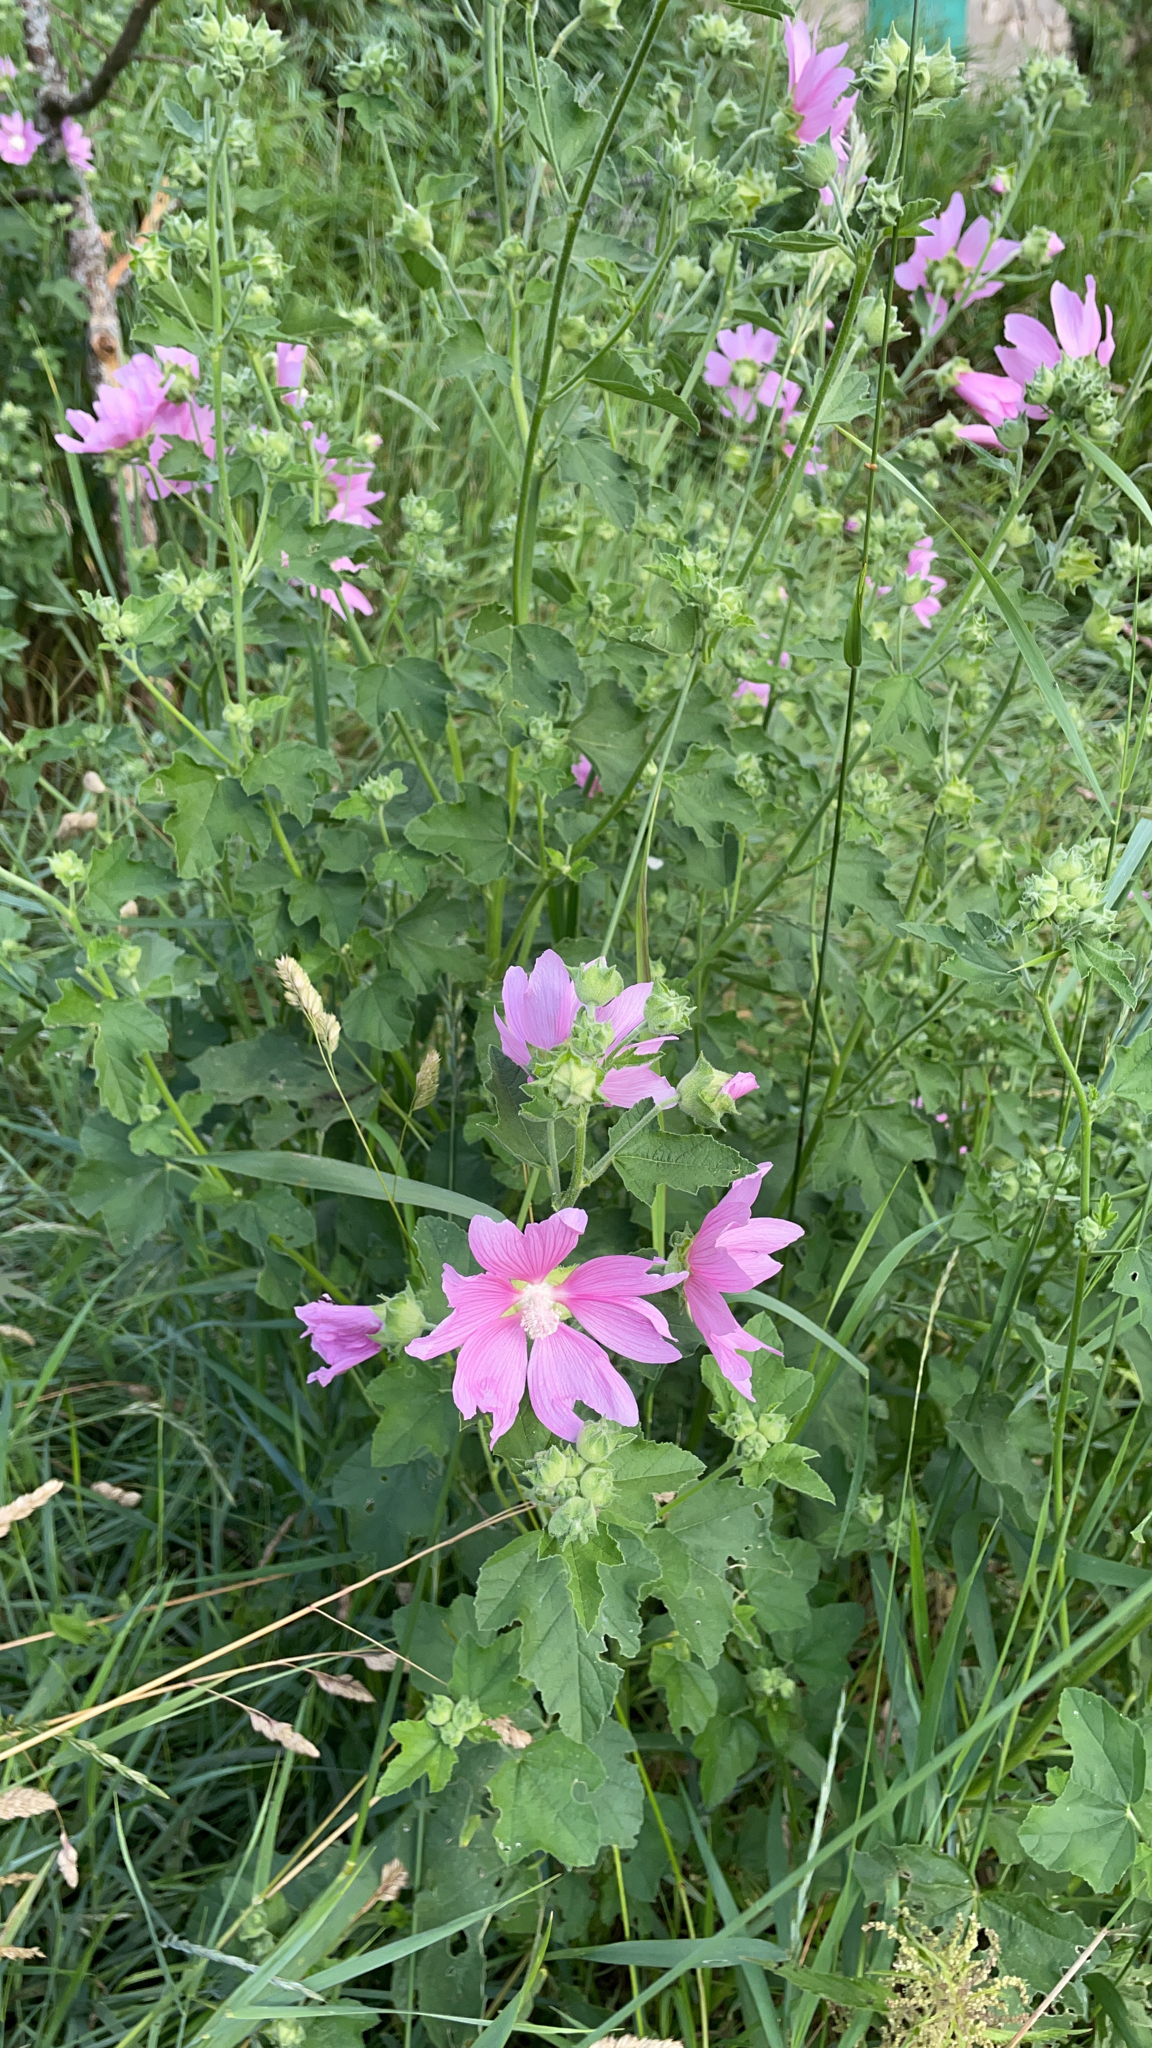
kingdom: Plantae
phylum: Tracheophyta
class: Magnoliopsida
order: Malvales
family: Malvaceae
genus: Malva
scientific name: Malva thuringiaca
